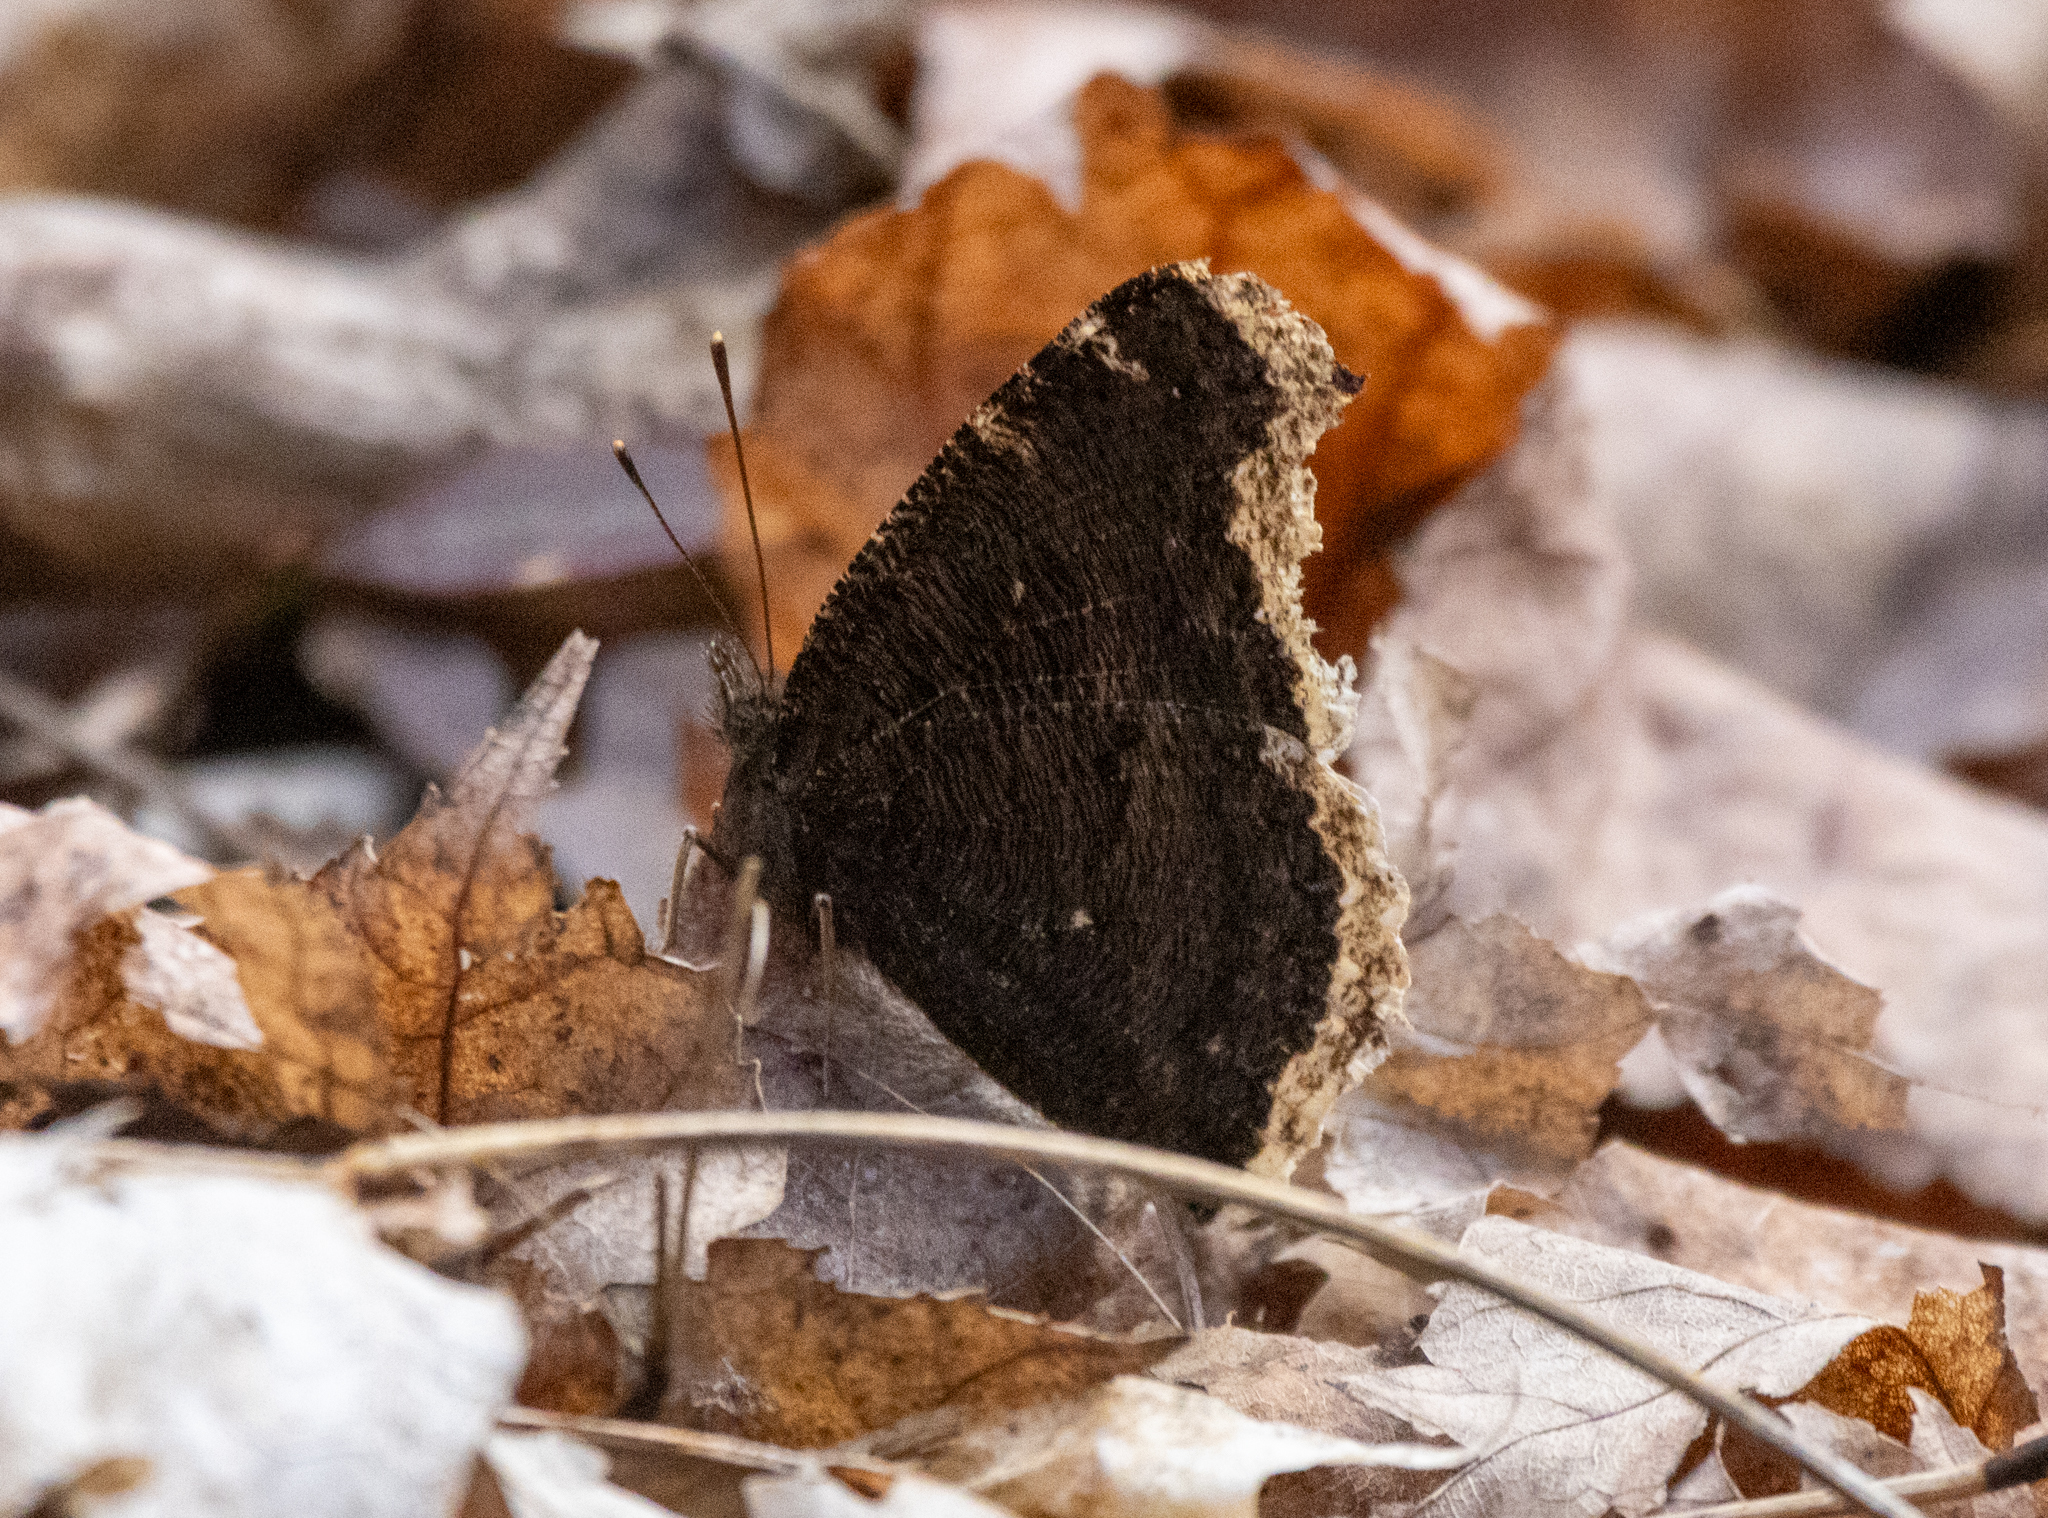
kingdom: Animalia
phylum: Arthropoda
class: Insecta
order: Lepidoptera
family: Nymphalidae
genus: Nymphalis
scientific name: Nymphalis antiopa
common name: Camberwell beauty
